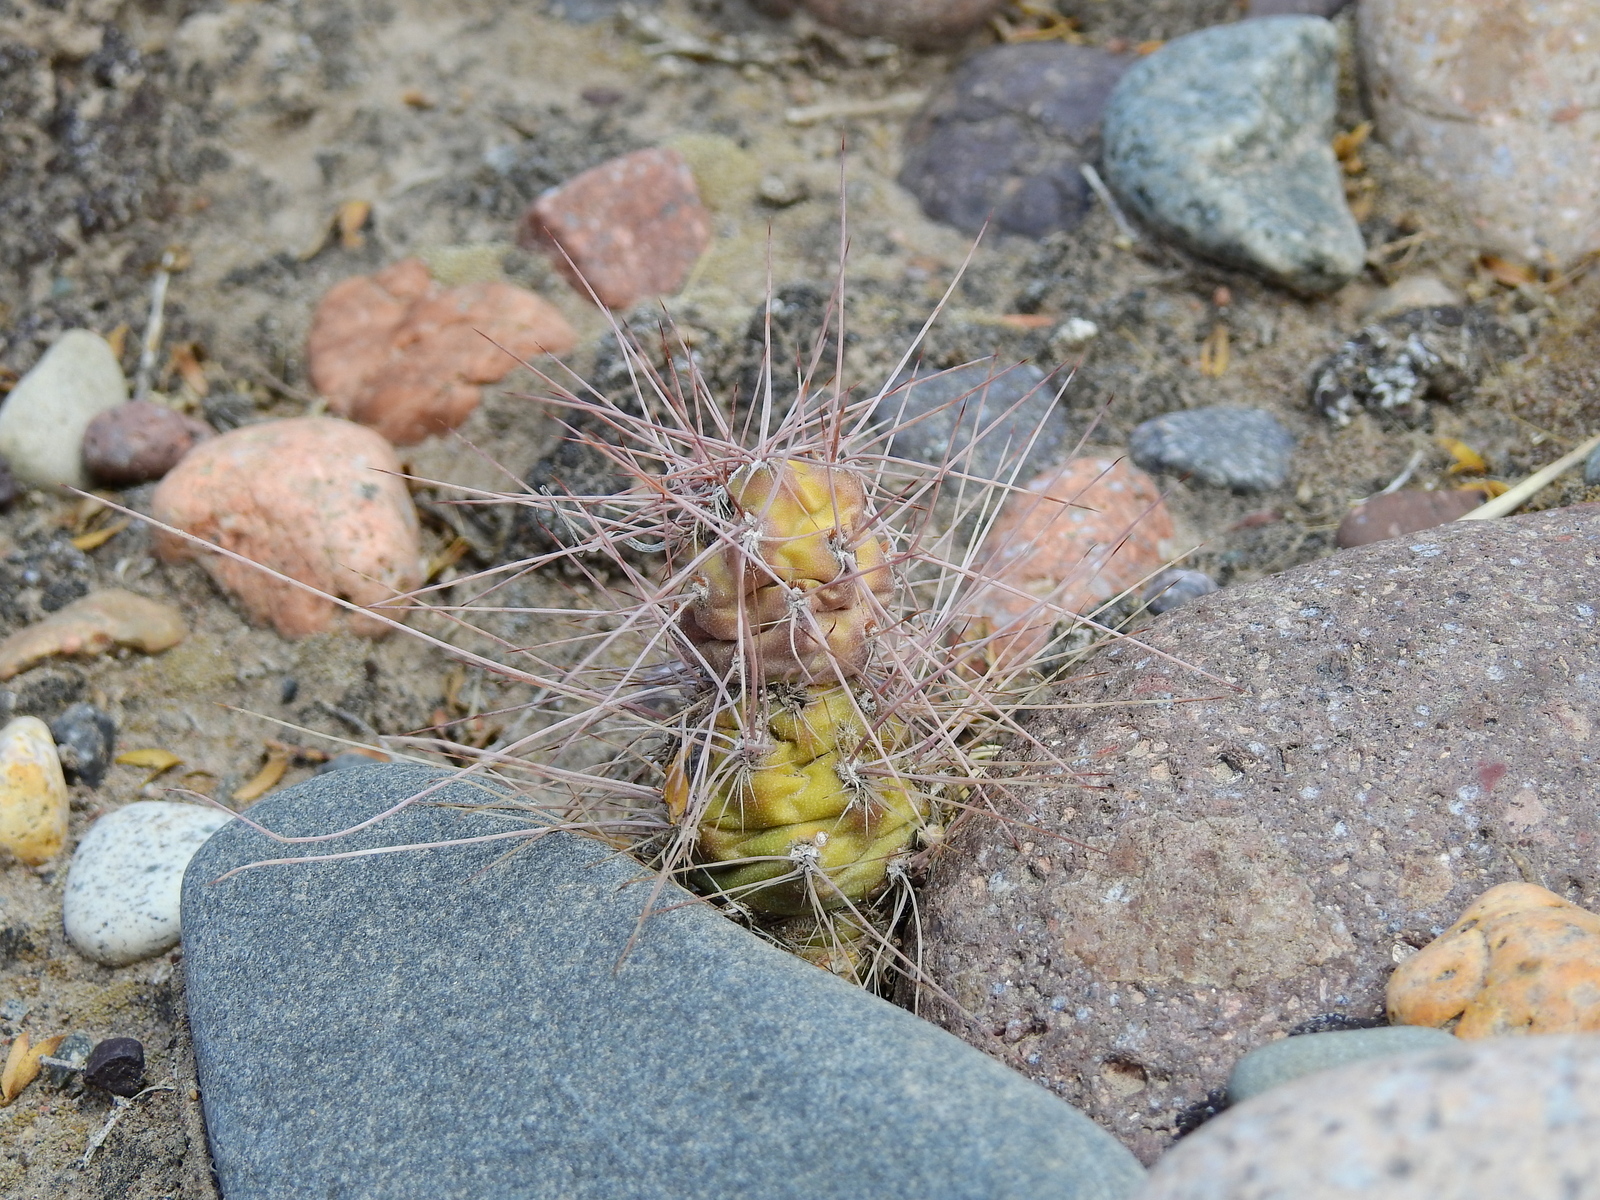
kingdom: Plantae
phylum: Tracheophyta
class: Magnoliopsida
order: Caryophyllales
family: Cactaceae
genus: Tephrocactus
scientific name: Tephrocactus aoracanthus
